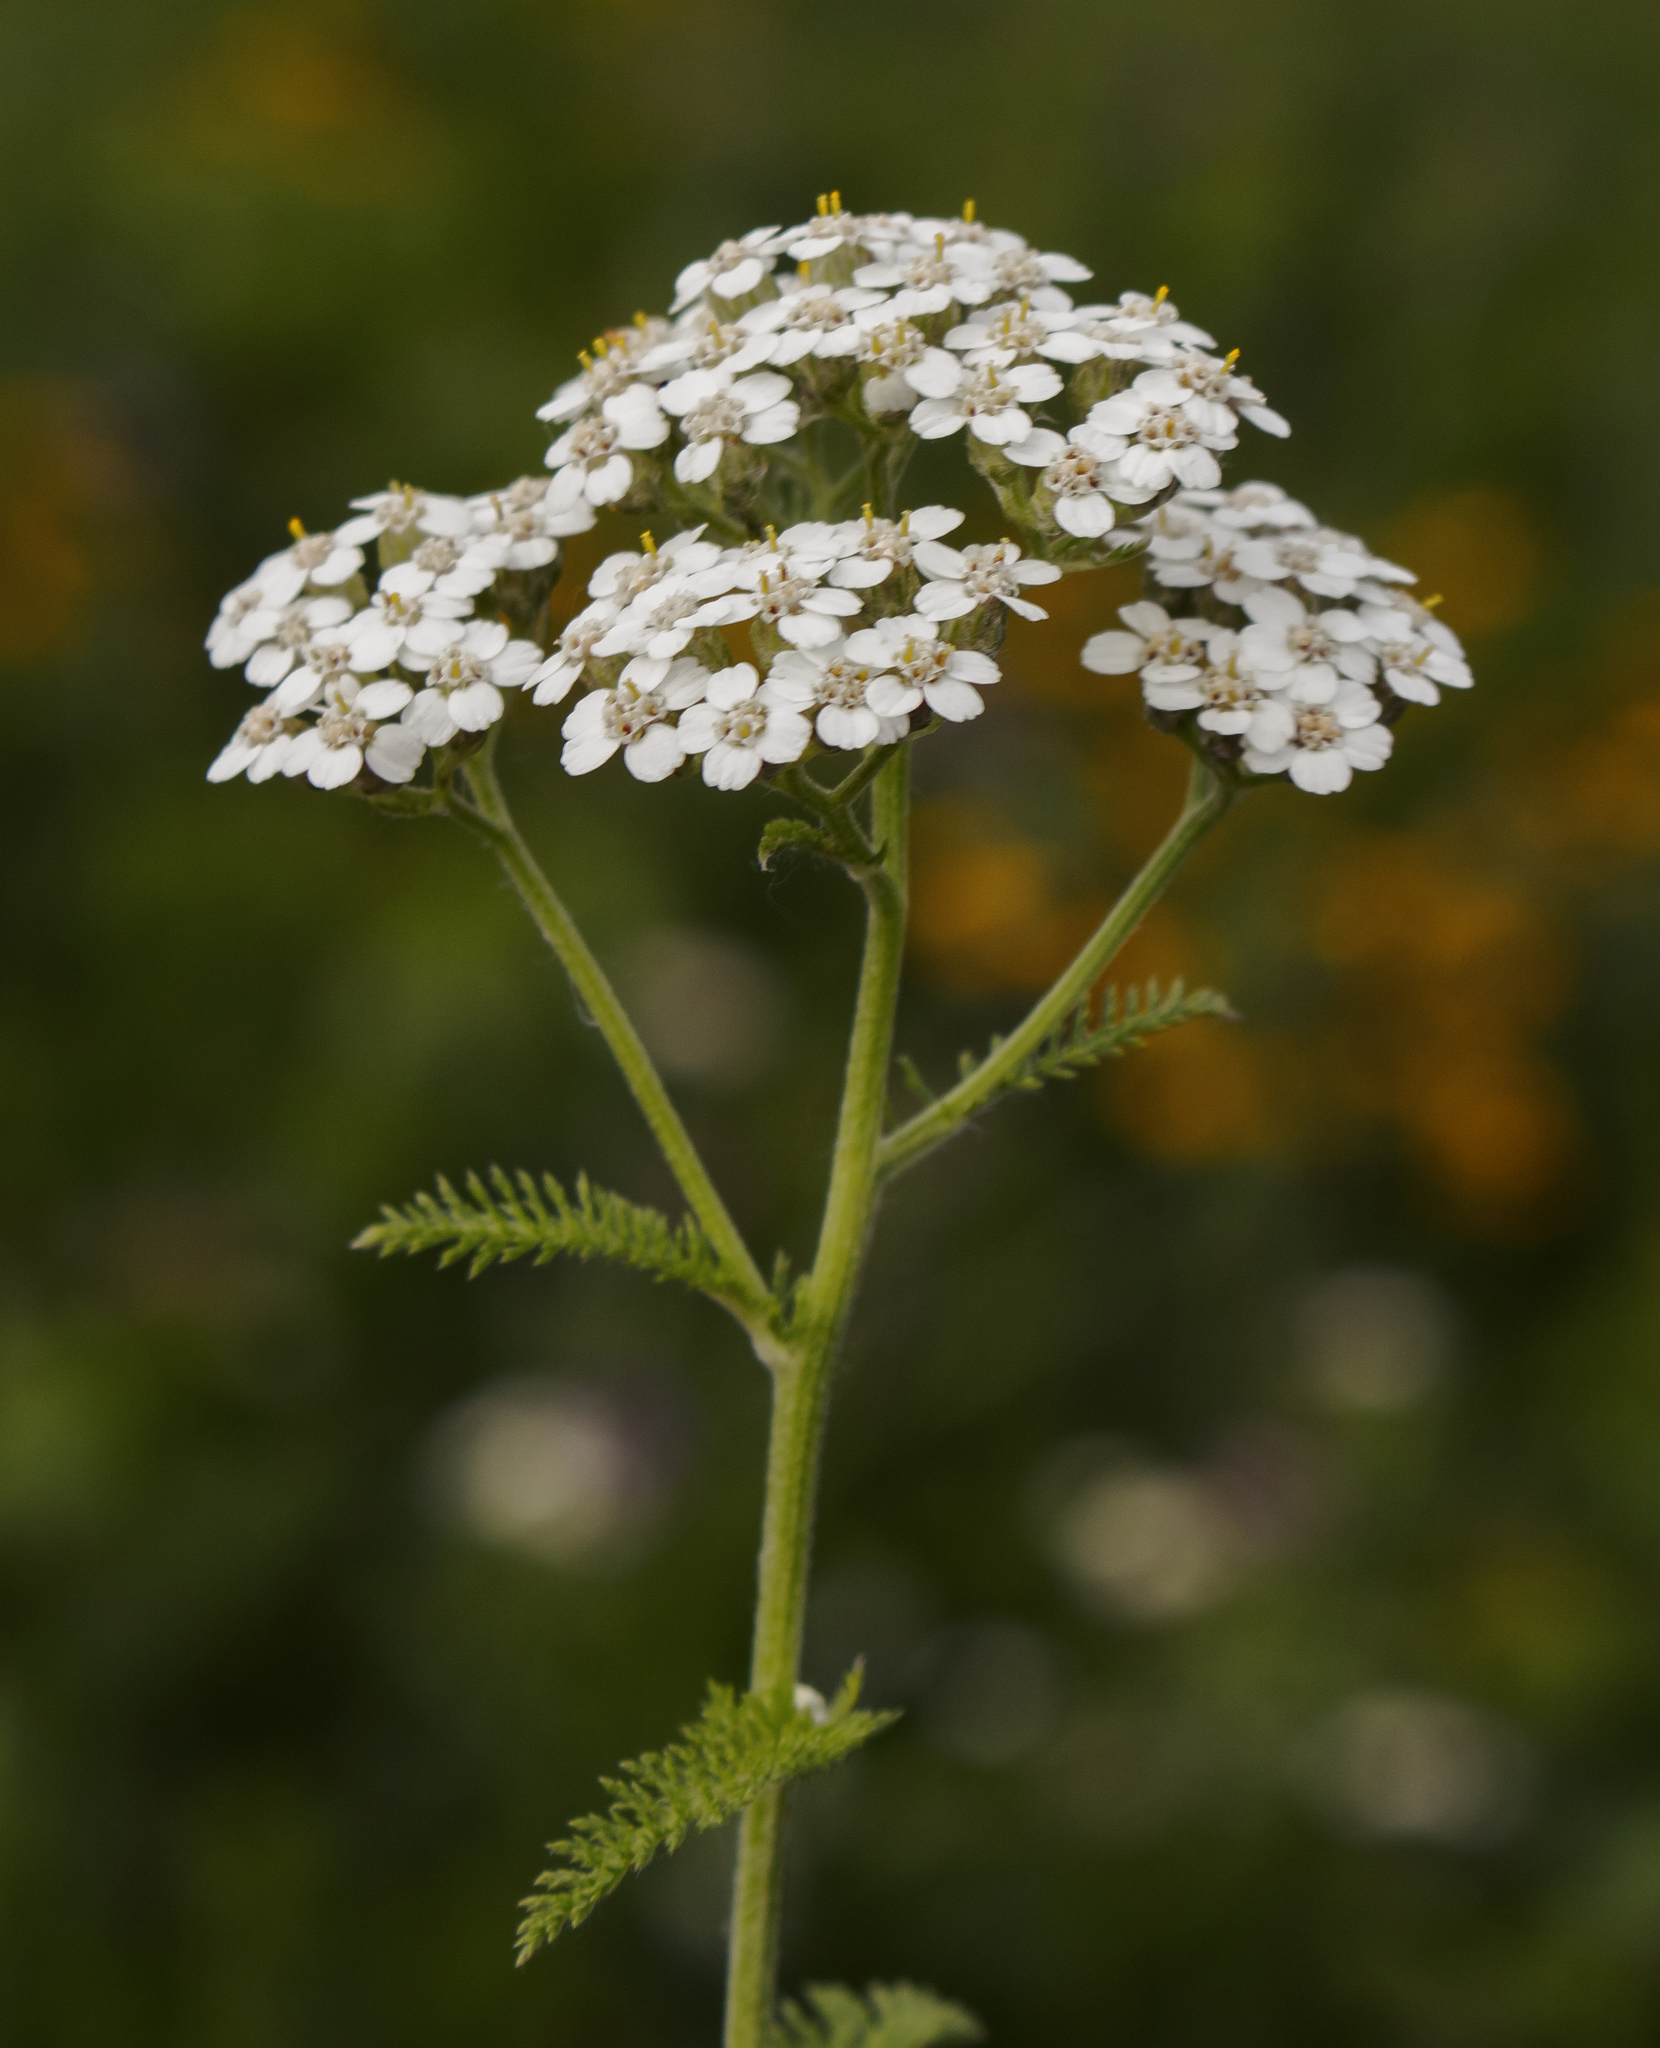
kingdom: Plantae
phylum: Tracheophyta
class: Magnoliopsida
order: Asterales
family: Asteraceae
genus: Achillea
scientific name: Achillea millefolium
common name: Yarrow
